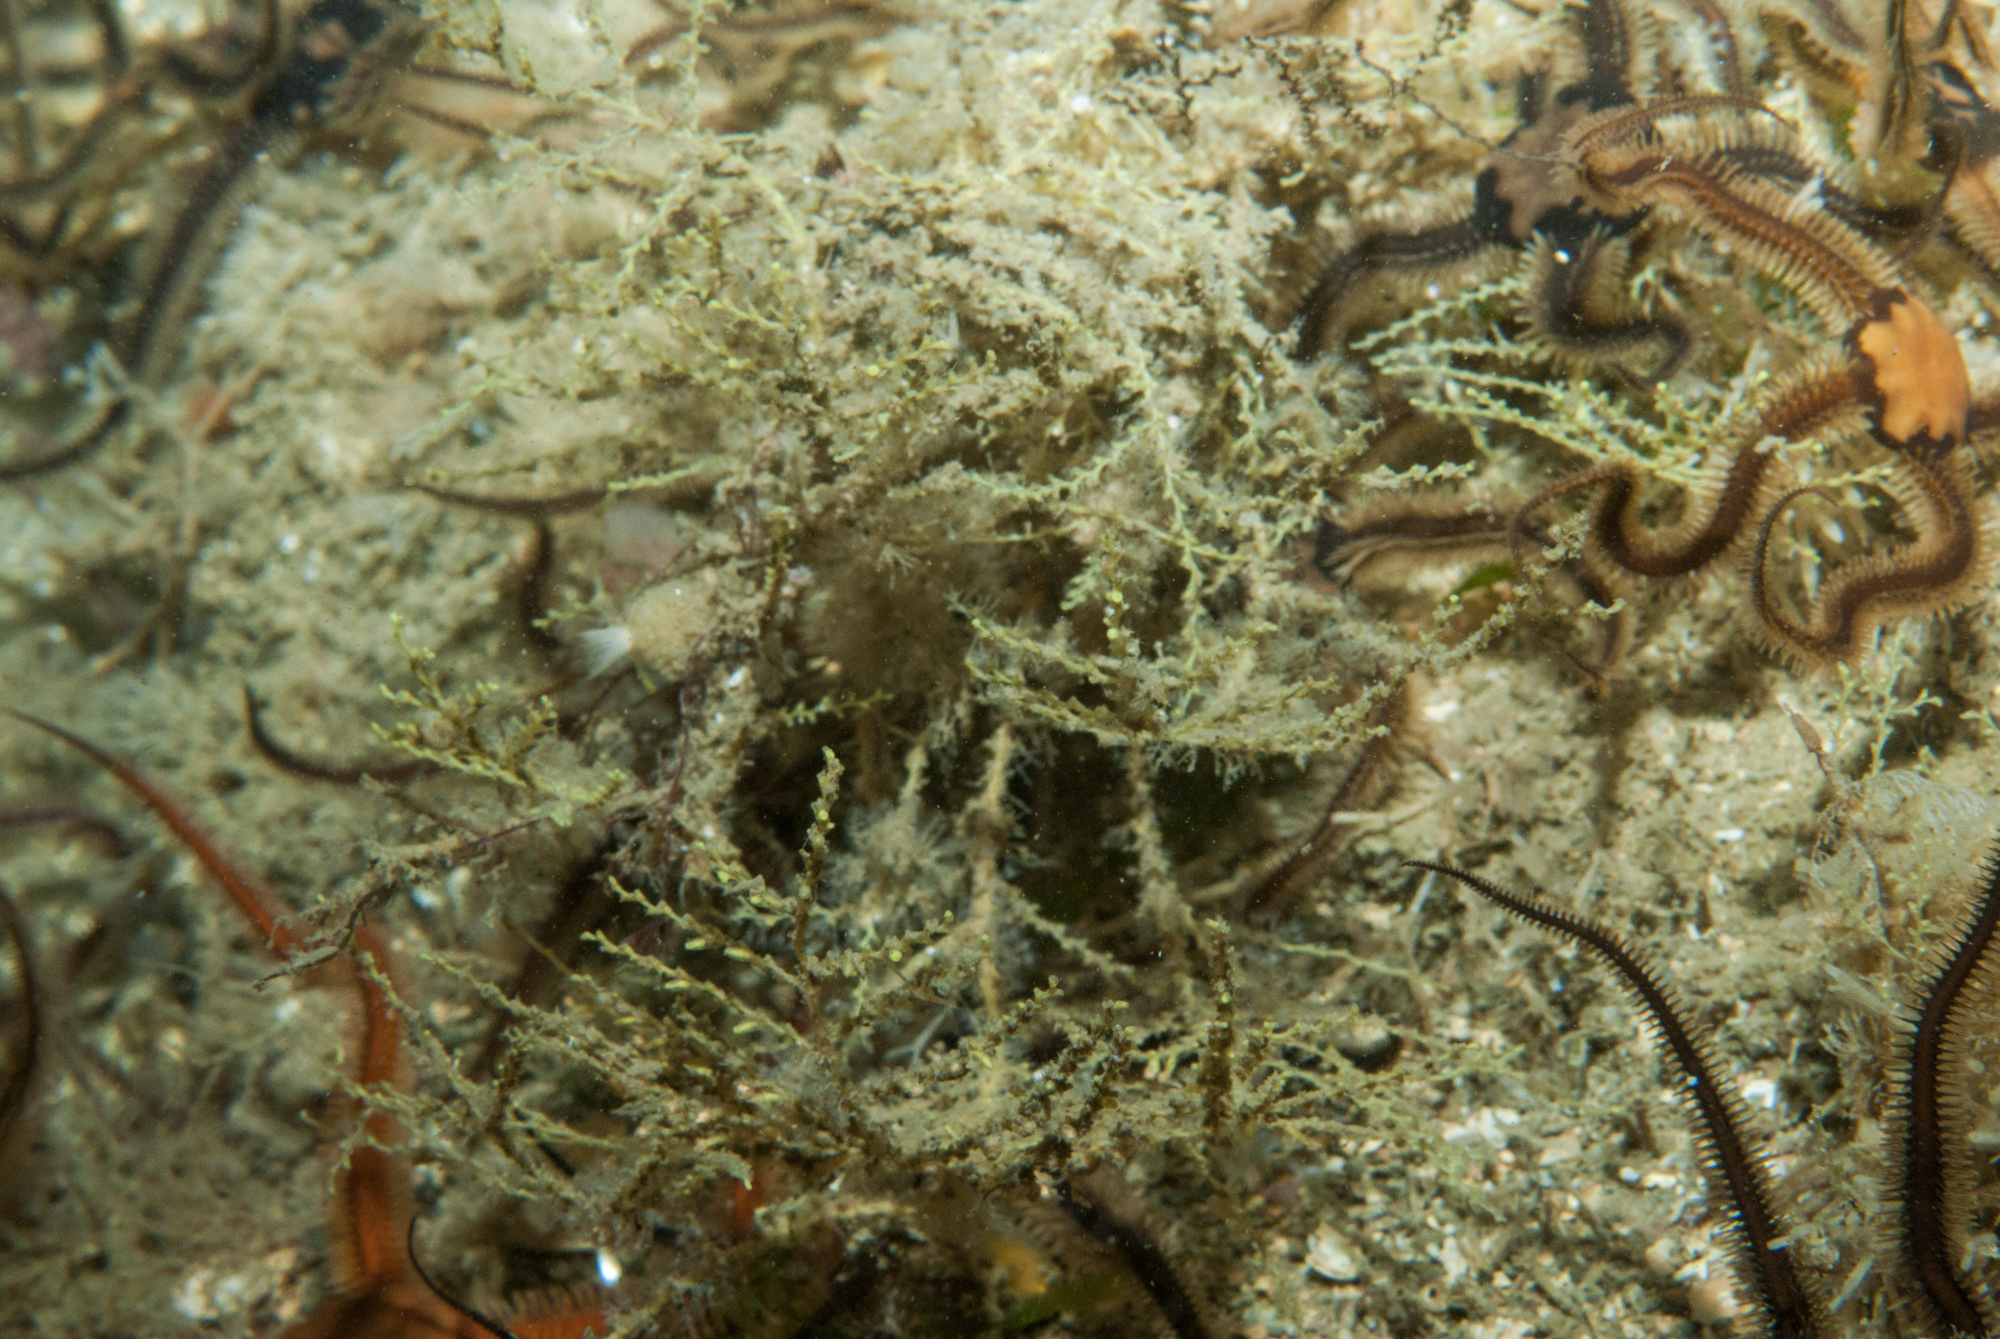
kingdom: Animalia
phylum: Cnidaria
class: Hydrozoa
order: Leptothecata
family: Sertularellidae
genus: Sertularella
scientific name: Sertularella gayi
